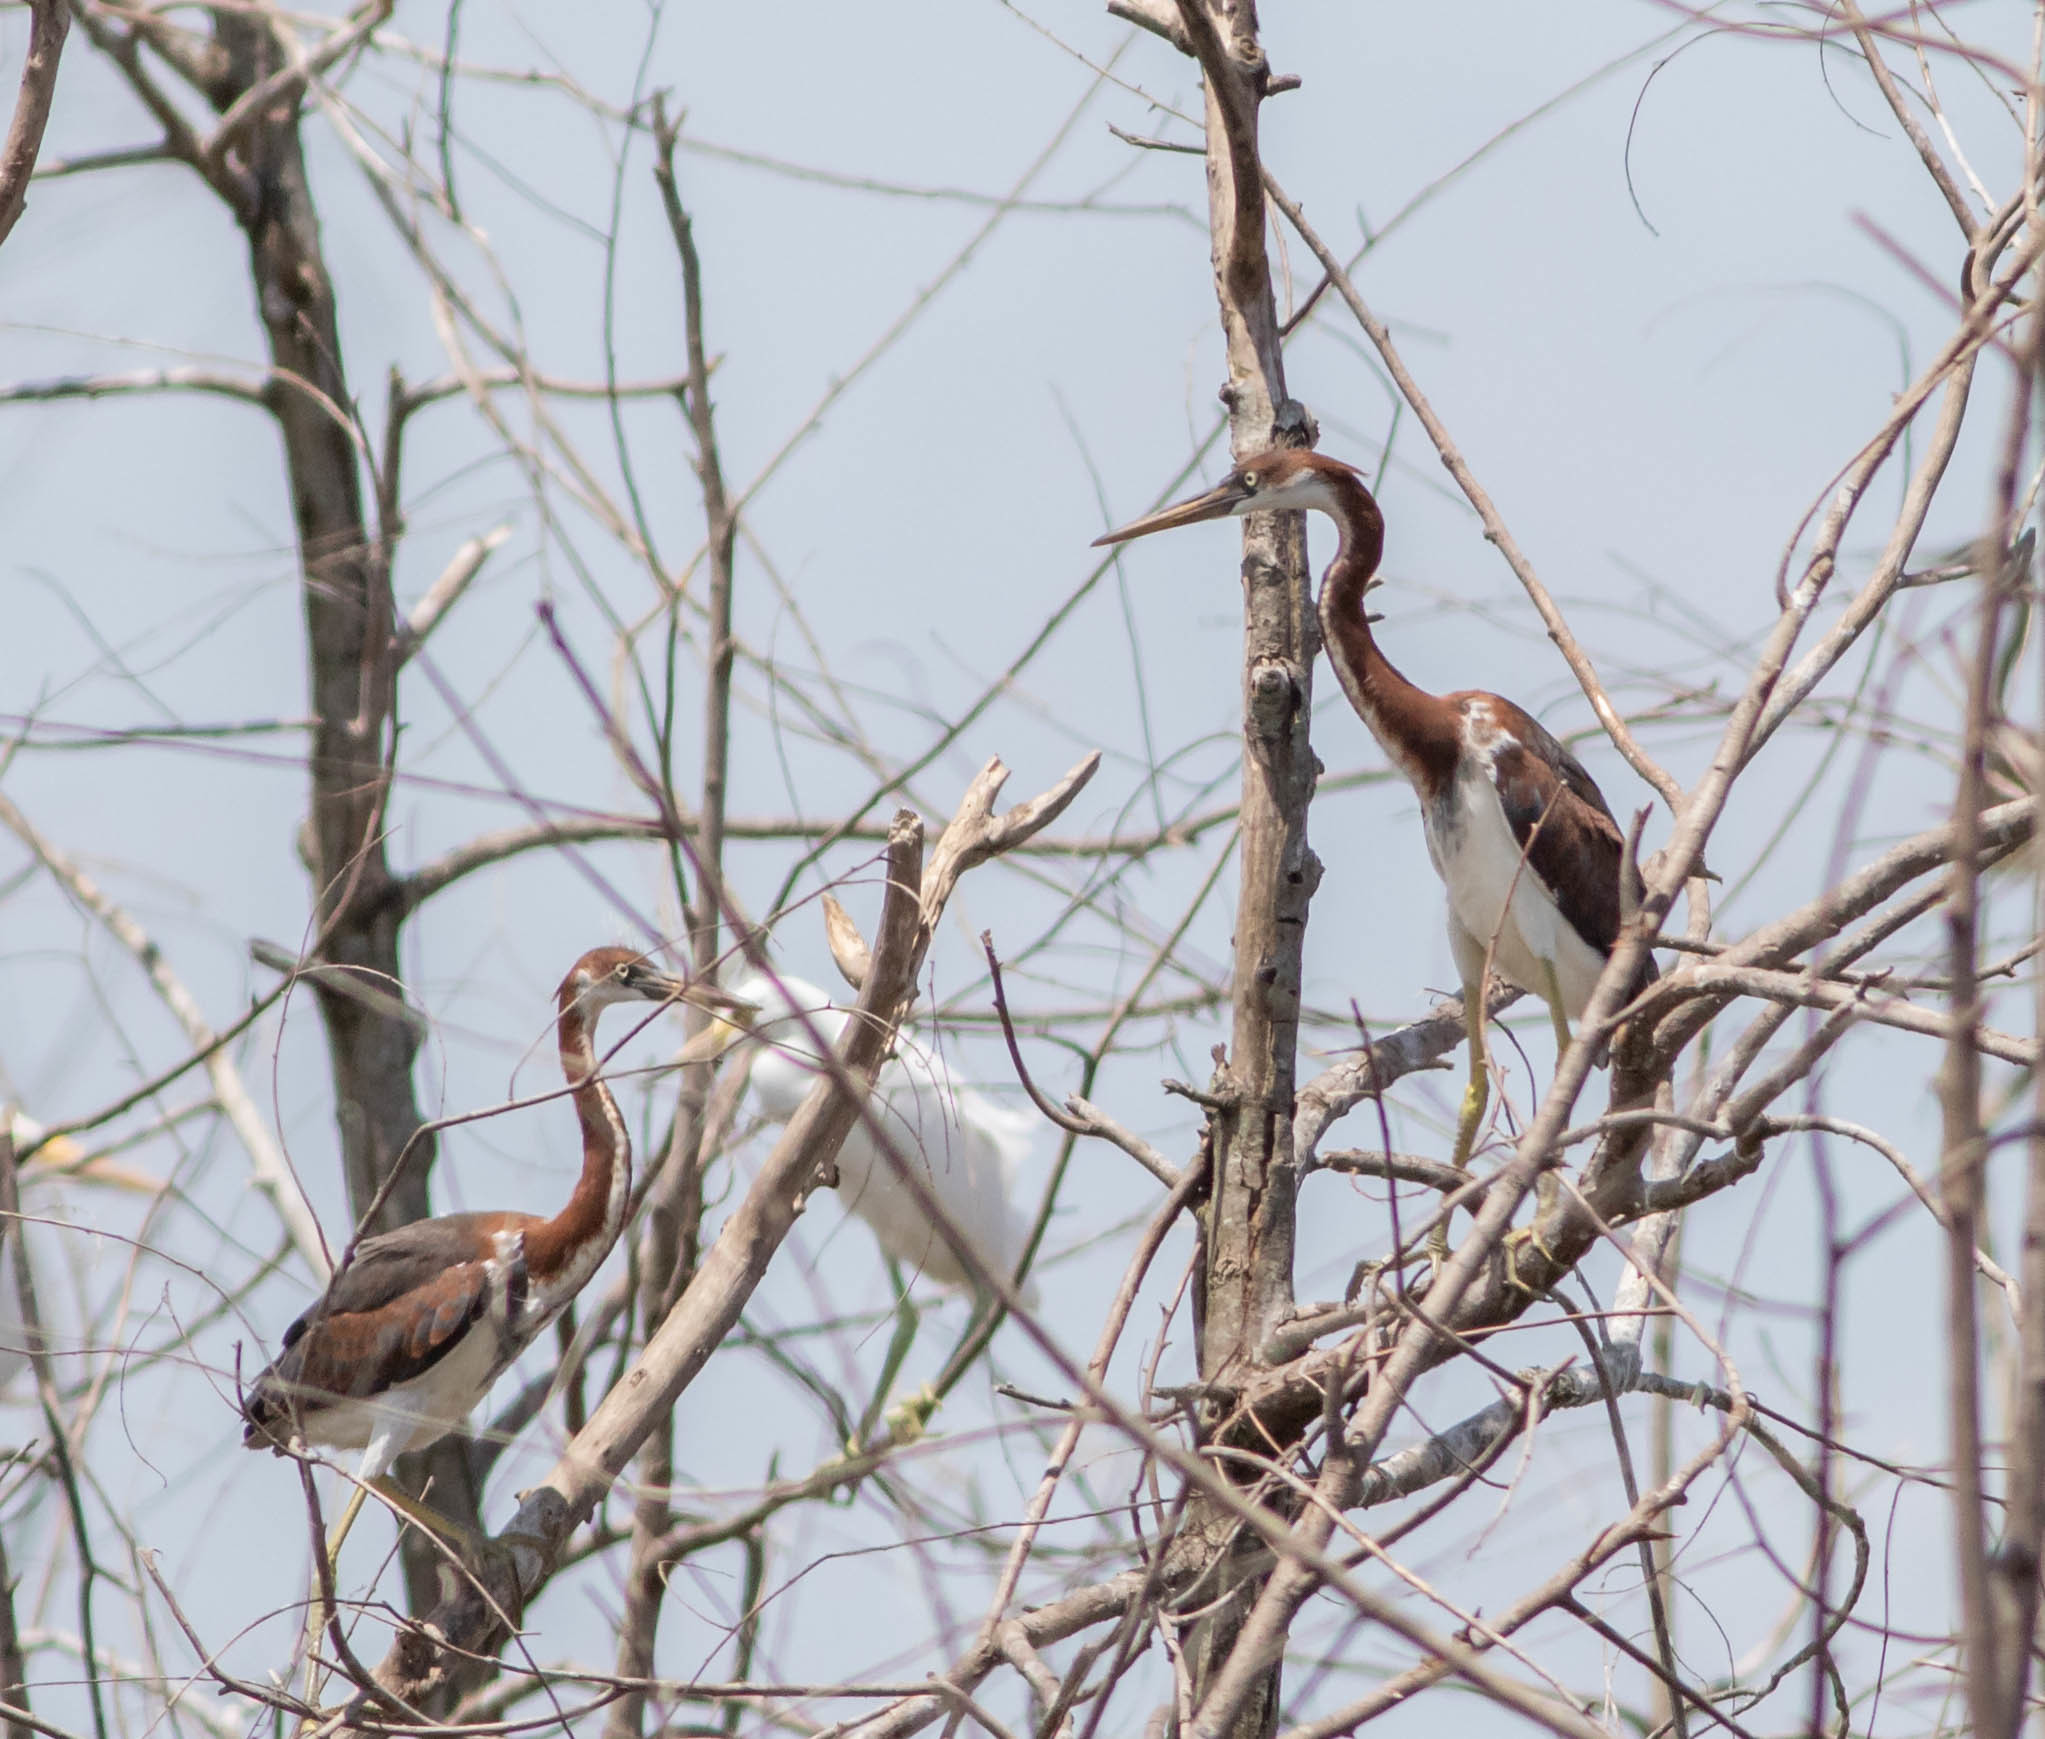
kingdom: Animalia
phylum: Chordata
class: Aves
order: Pelecaniformes
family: Ardeidae
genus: Egretta
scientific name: Egretta tricolor
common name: Tricolored heron
